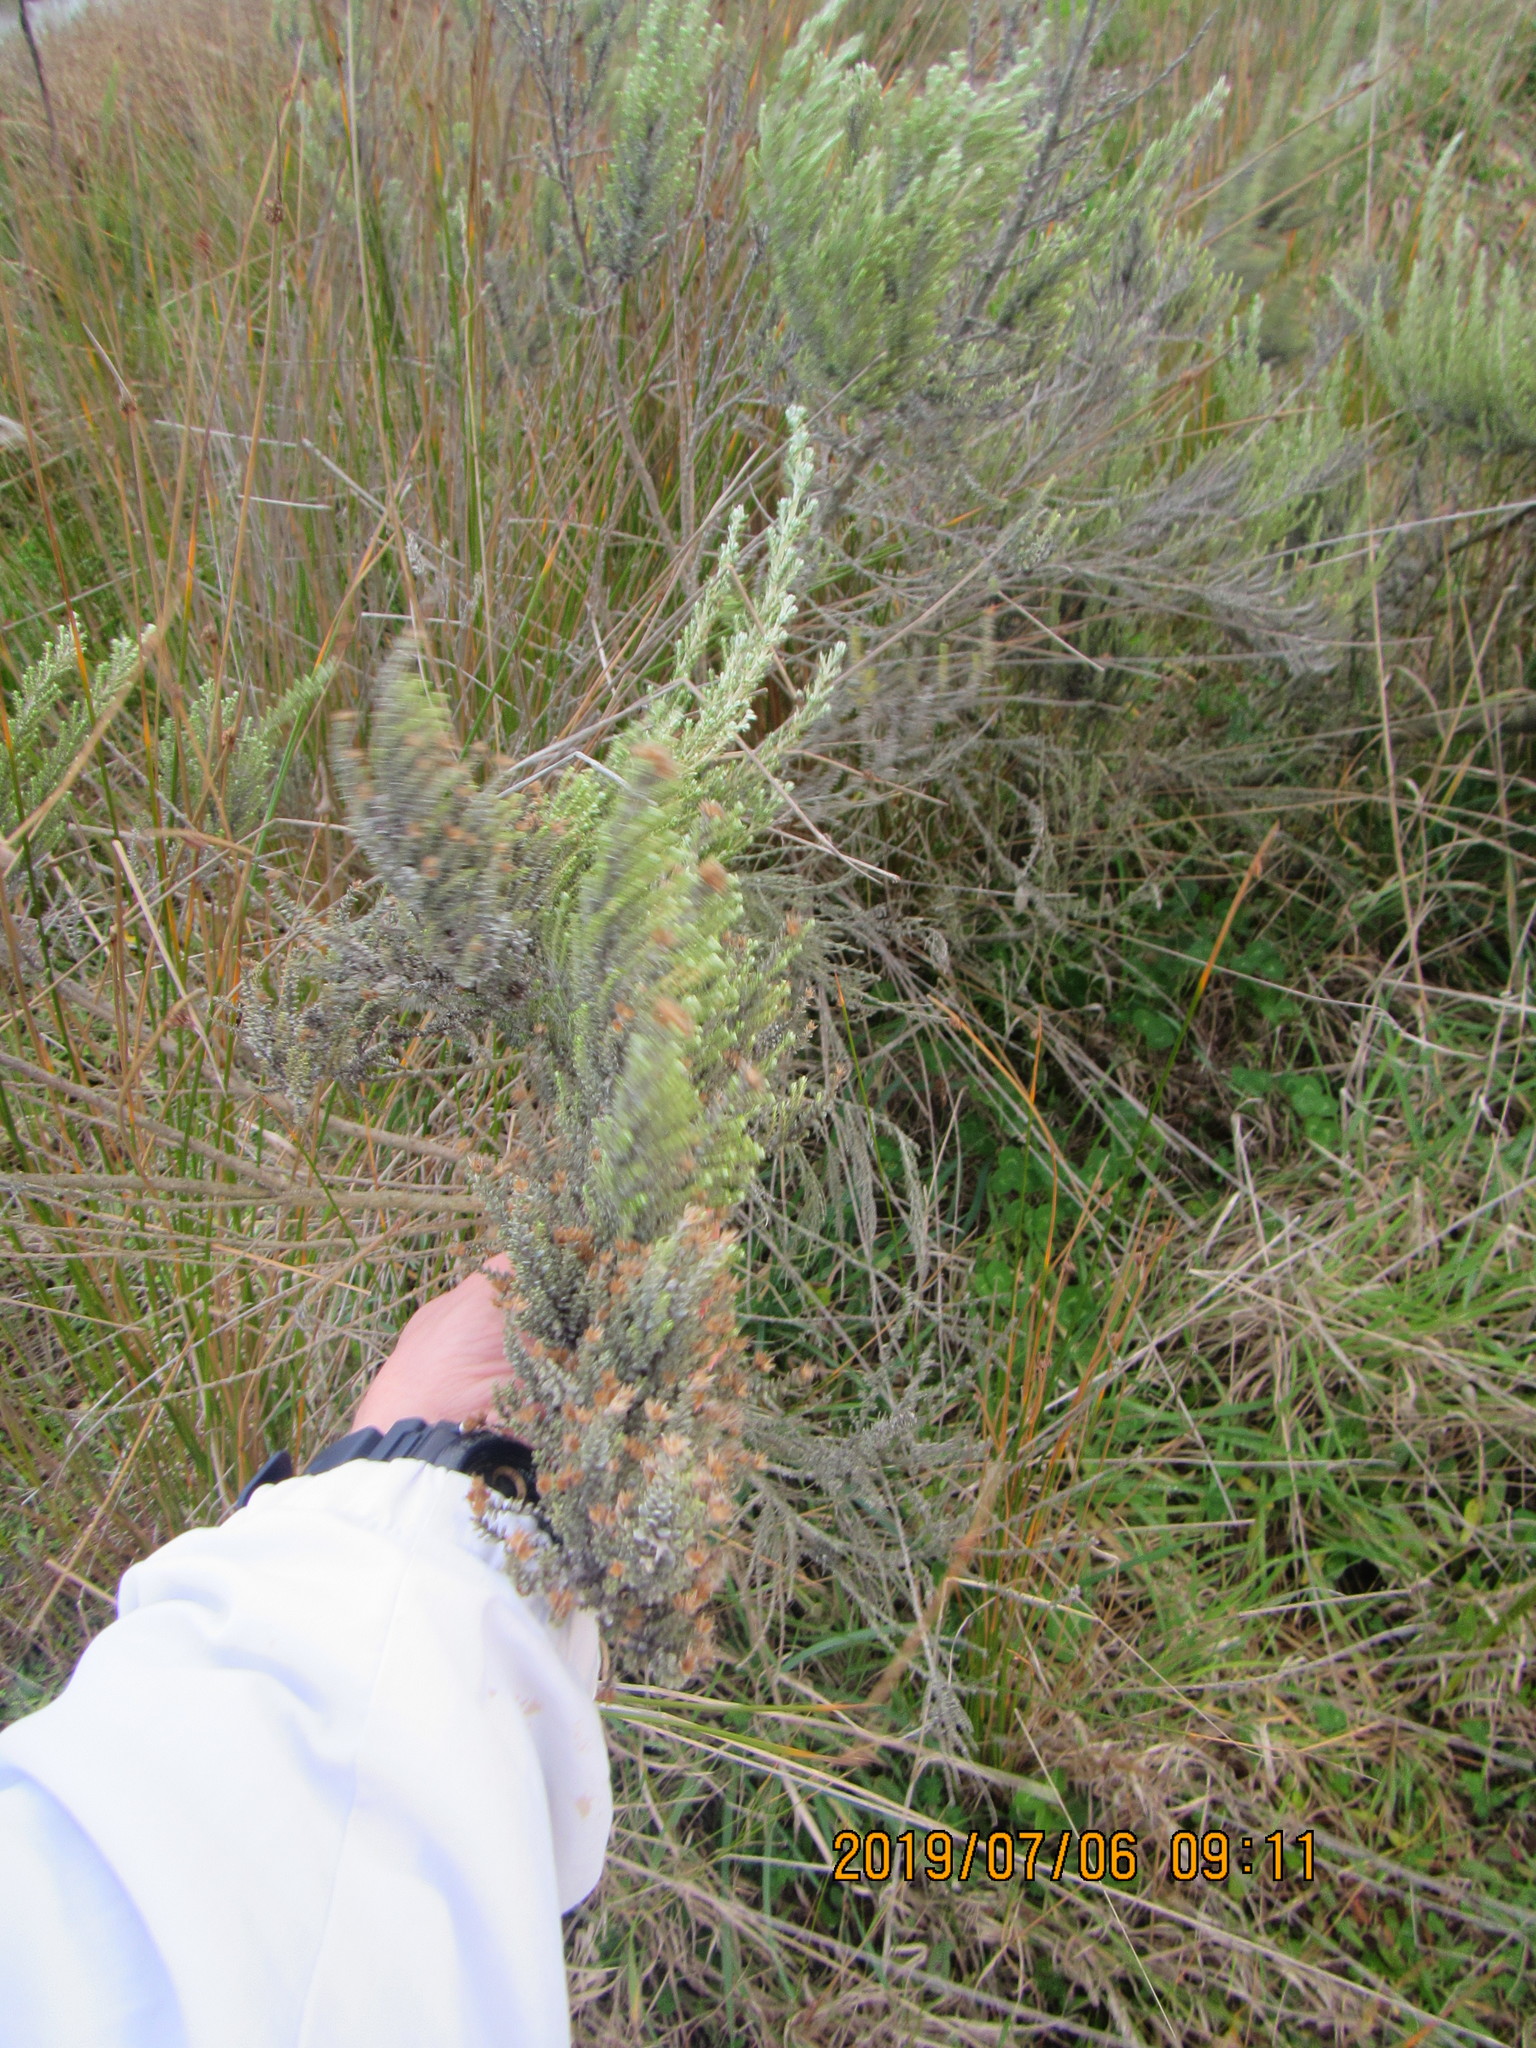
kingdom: Plantae
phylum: Tracheophyta
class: Magnoliopsida
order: Asterales
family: Asteraceae
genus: Ozothamnus
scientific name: Ozothamnus leptophyllus
